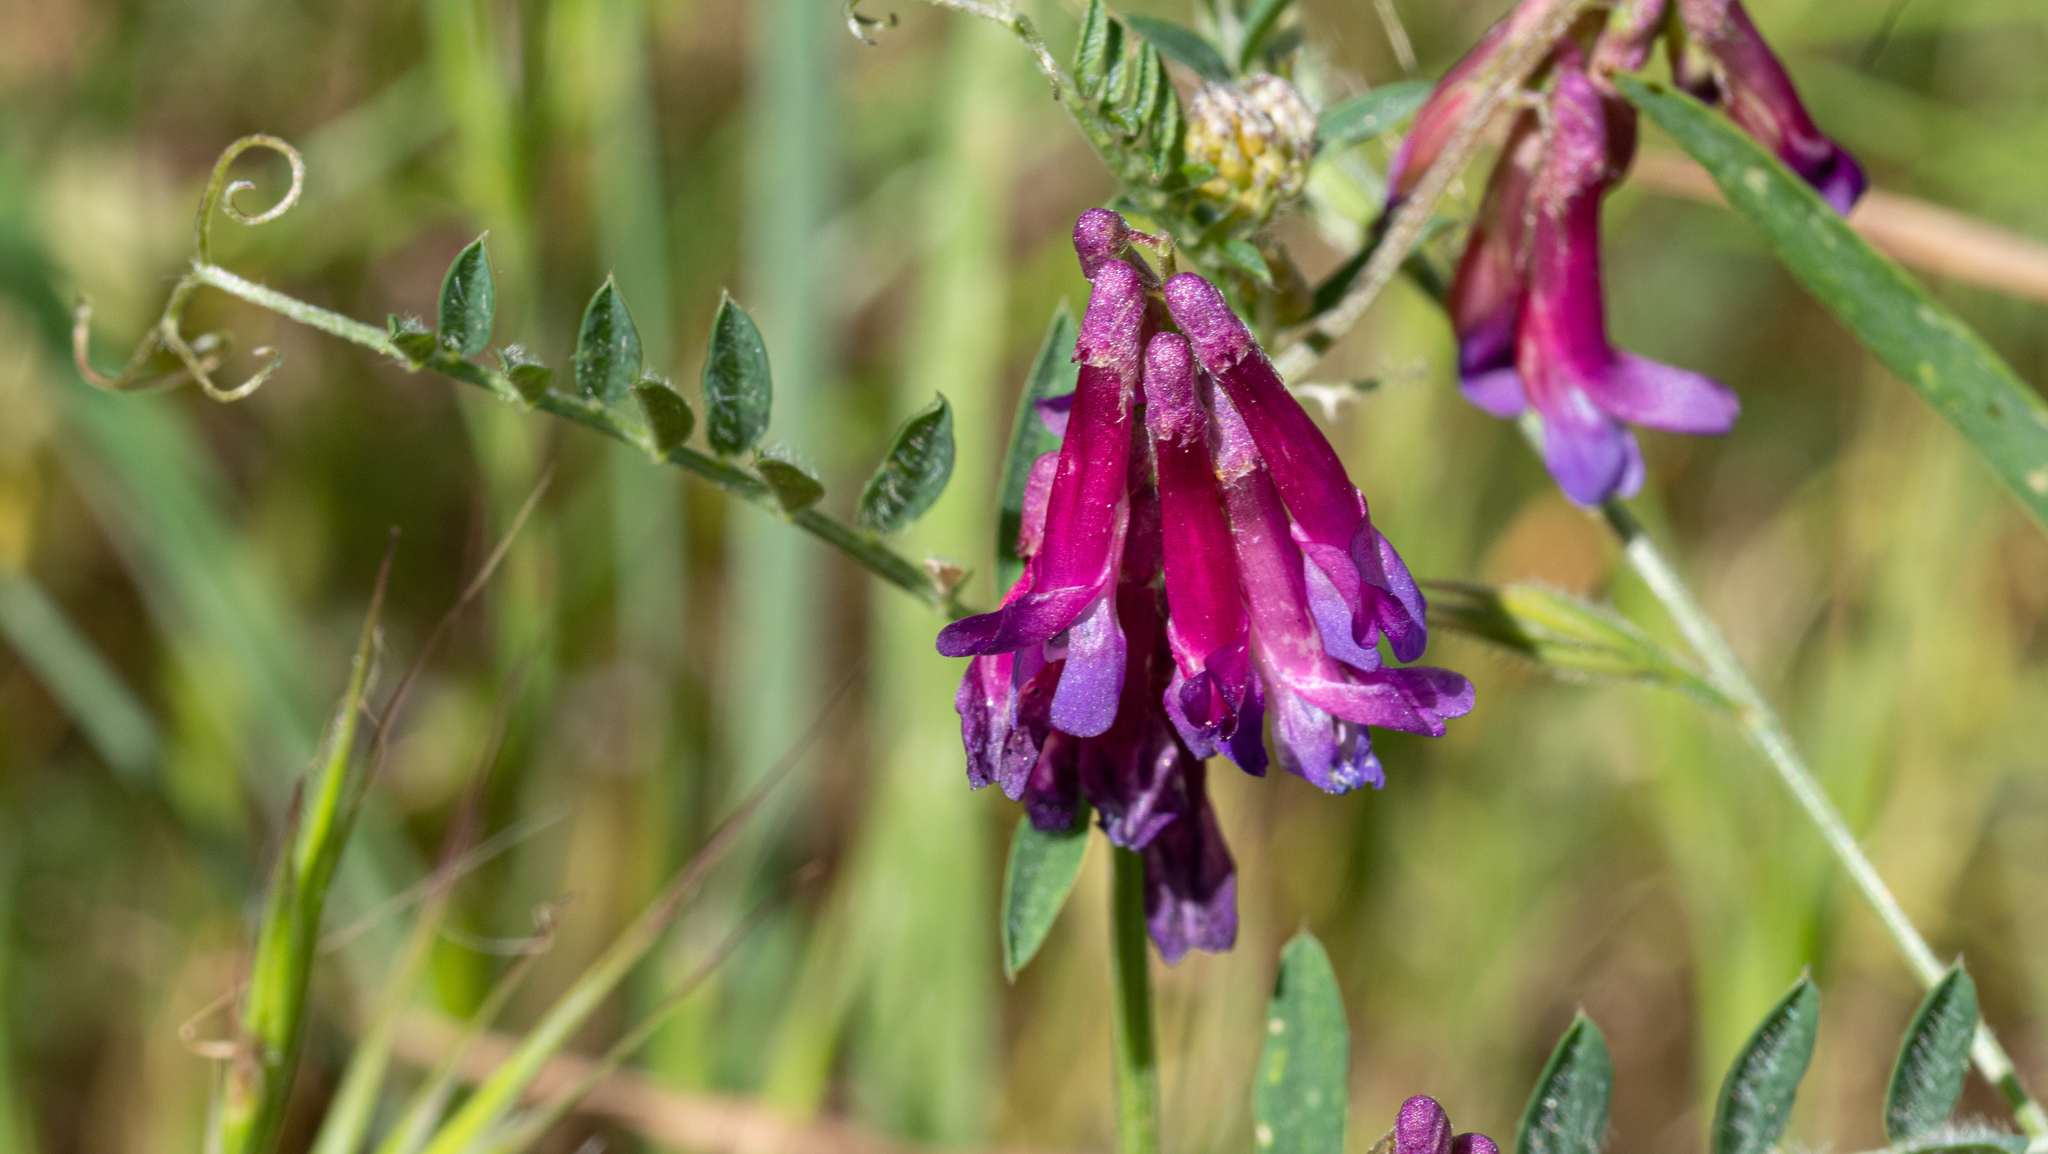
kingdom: Plantae
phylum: Tracheophyta
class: Magnoliopsida
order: Fabales
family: Fabaceae
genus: Vicia
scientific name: Vicia villosa
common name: Fodder vetch
